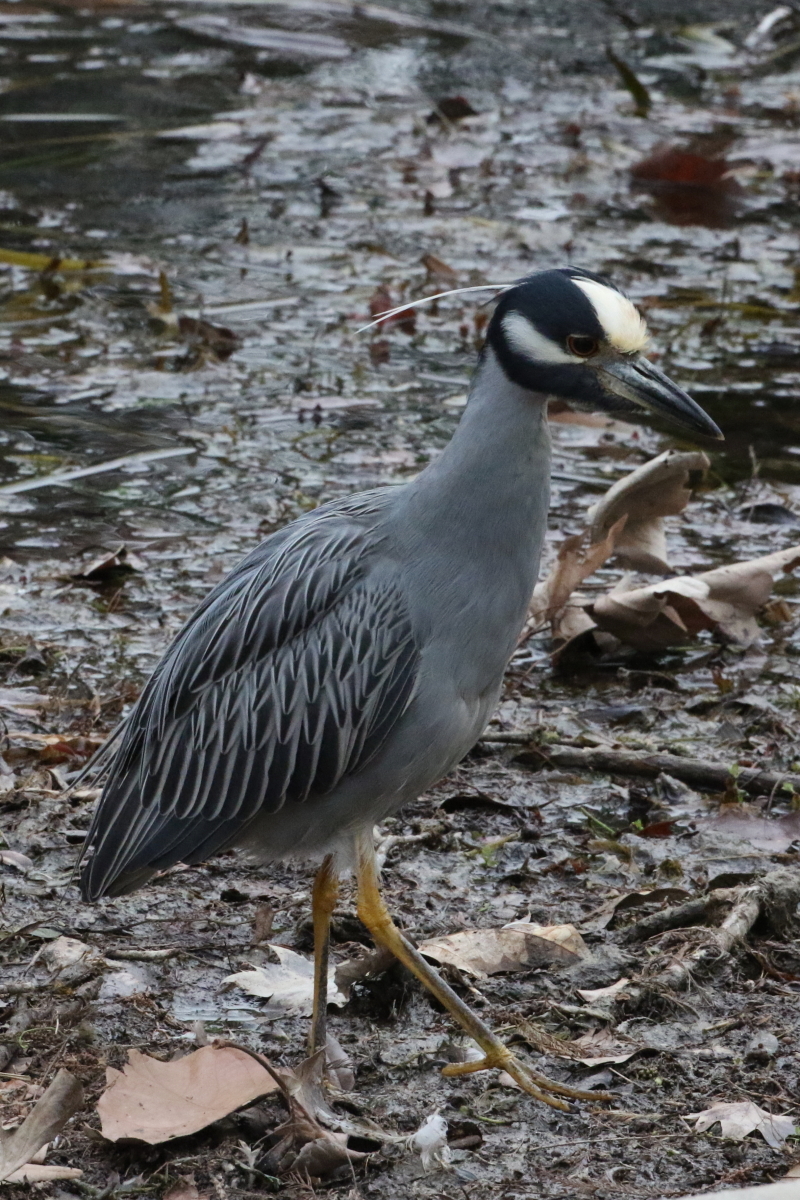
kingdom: Animalia
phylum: Chordata
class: Aves
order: Pelecaniformes
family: Ardeidae
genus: Nyctanassa
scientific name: Nyctanassa violacea
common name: Yellow-crowned night heron
